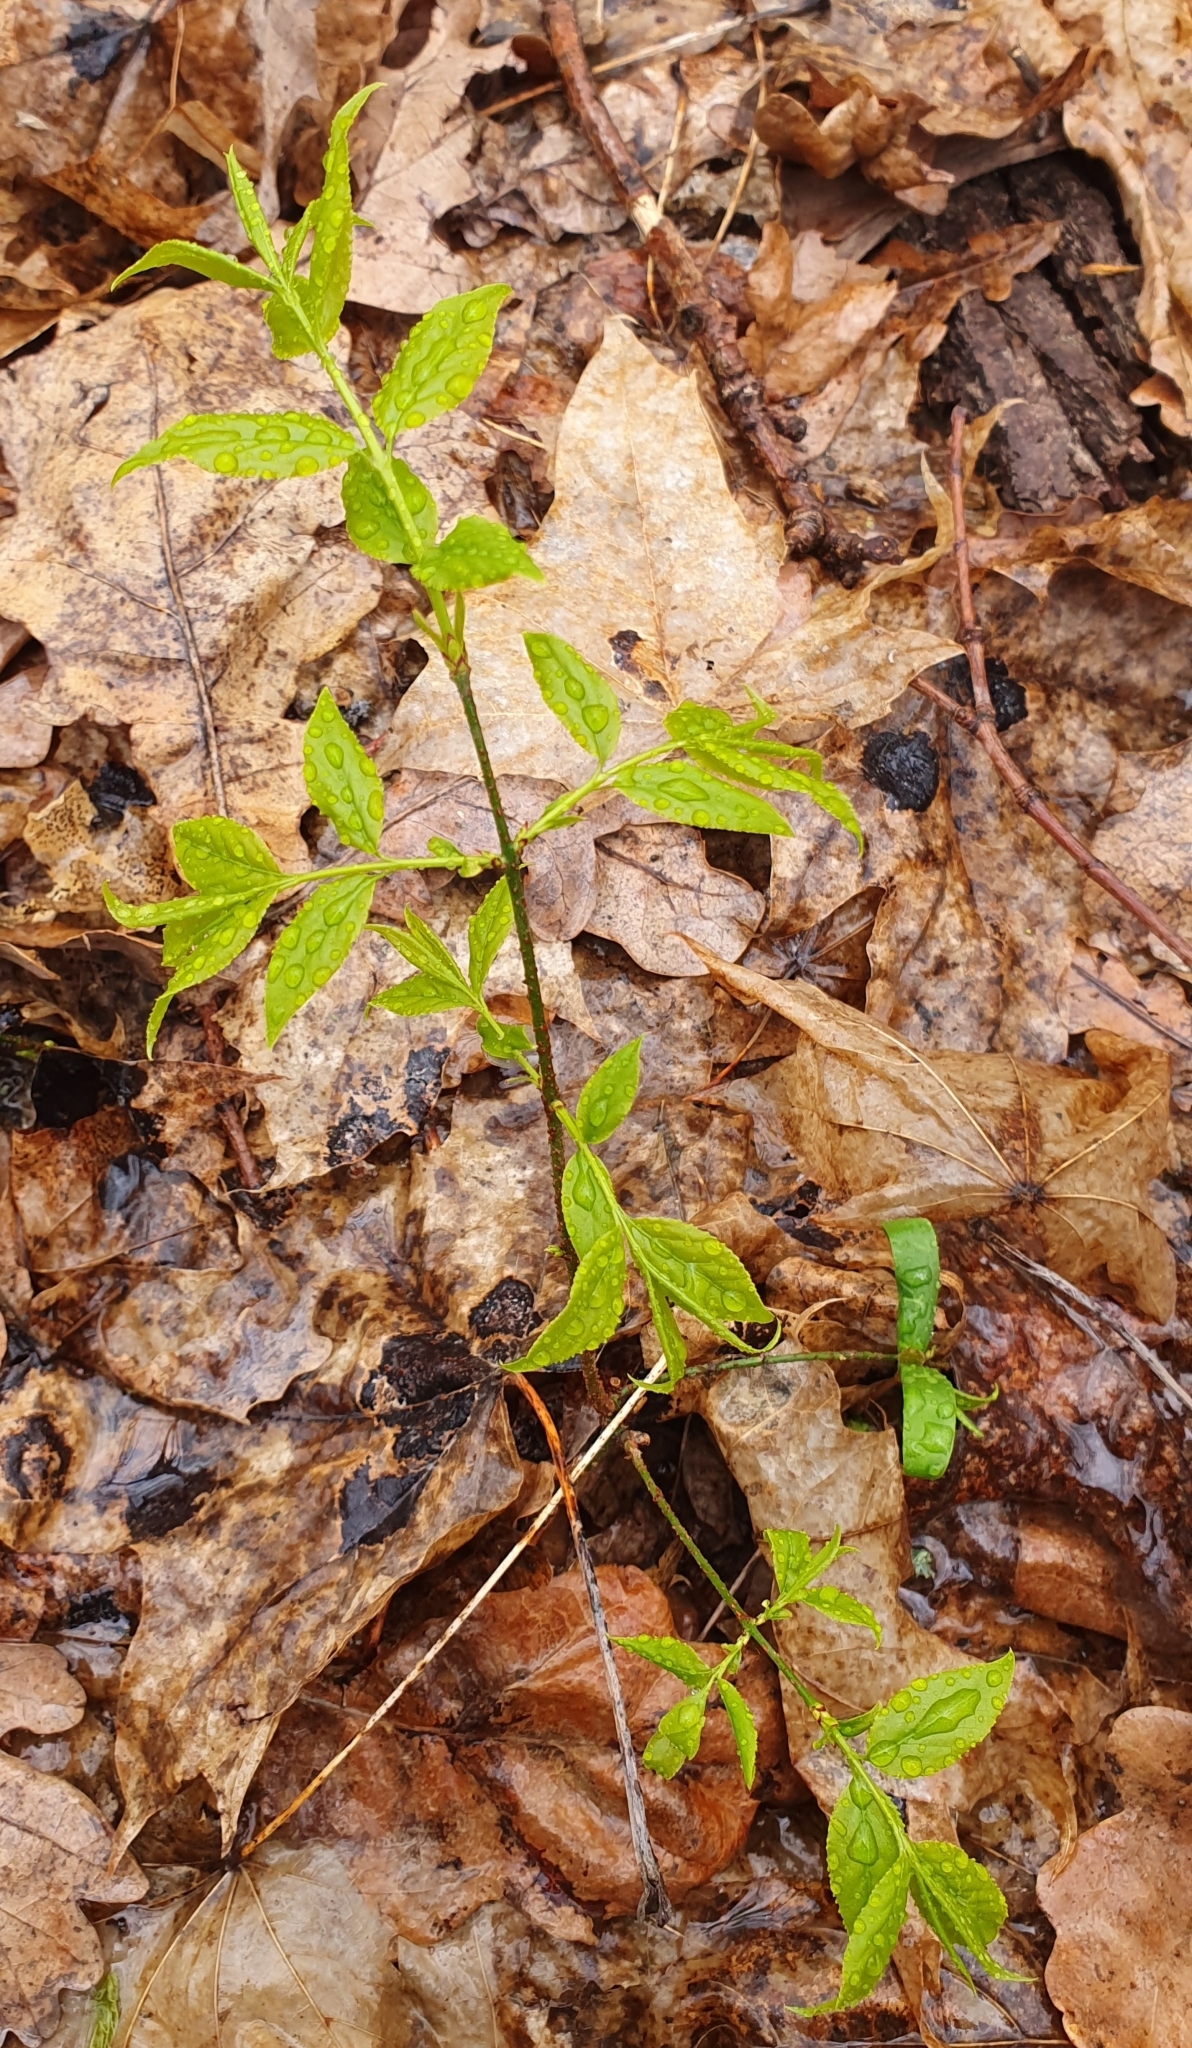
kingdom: Plantae
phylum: Tracheophyta
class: Magnoliopsida
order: Celastrales
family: Celastraceae
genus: Euonymus
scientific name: Euonymus verrucosus
